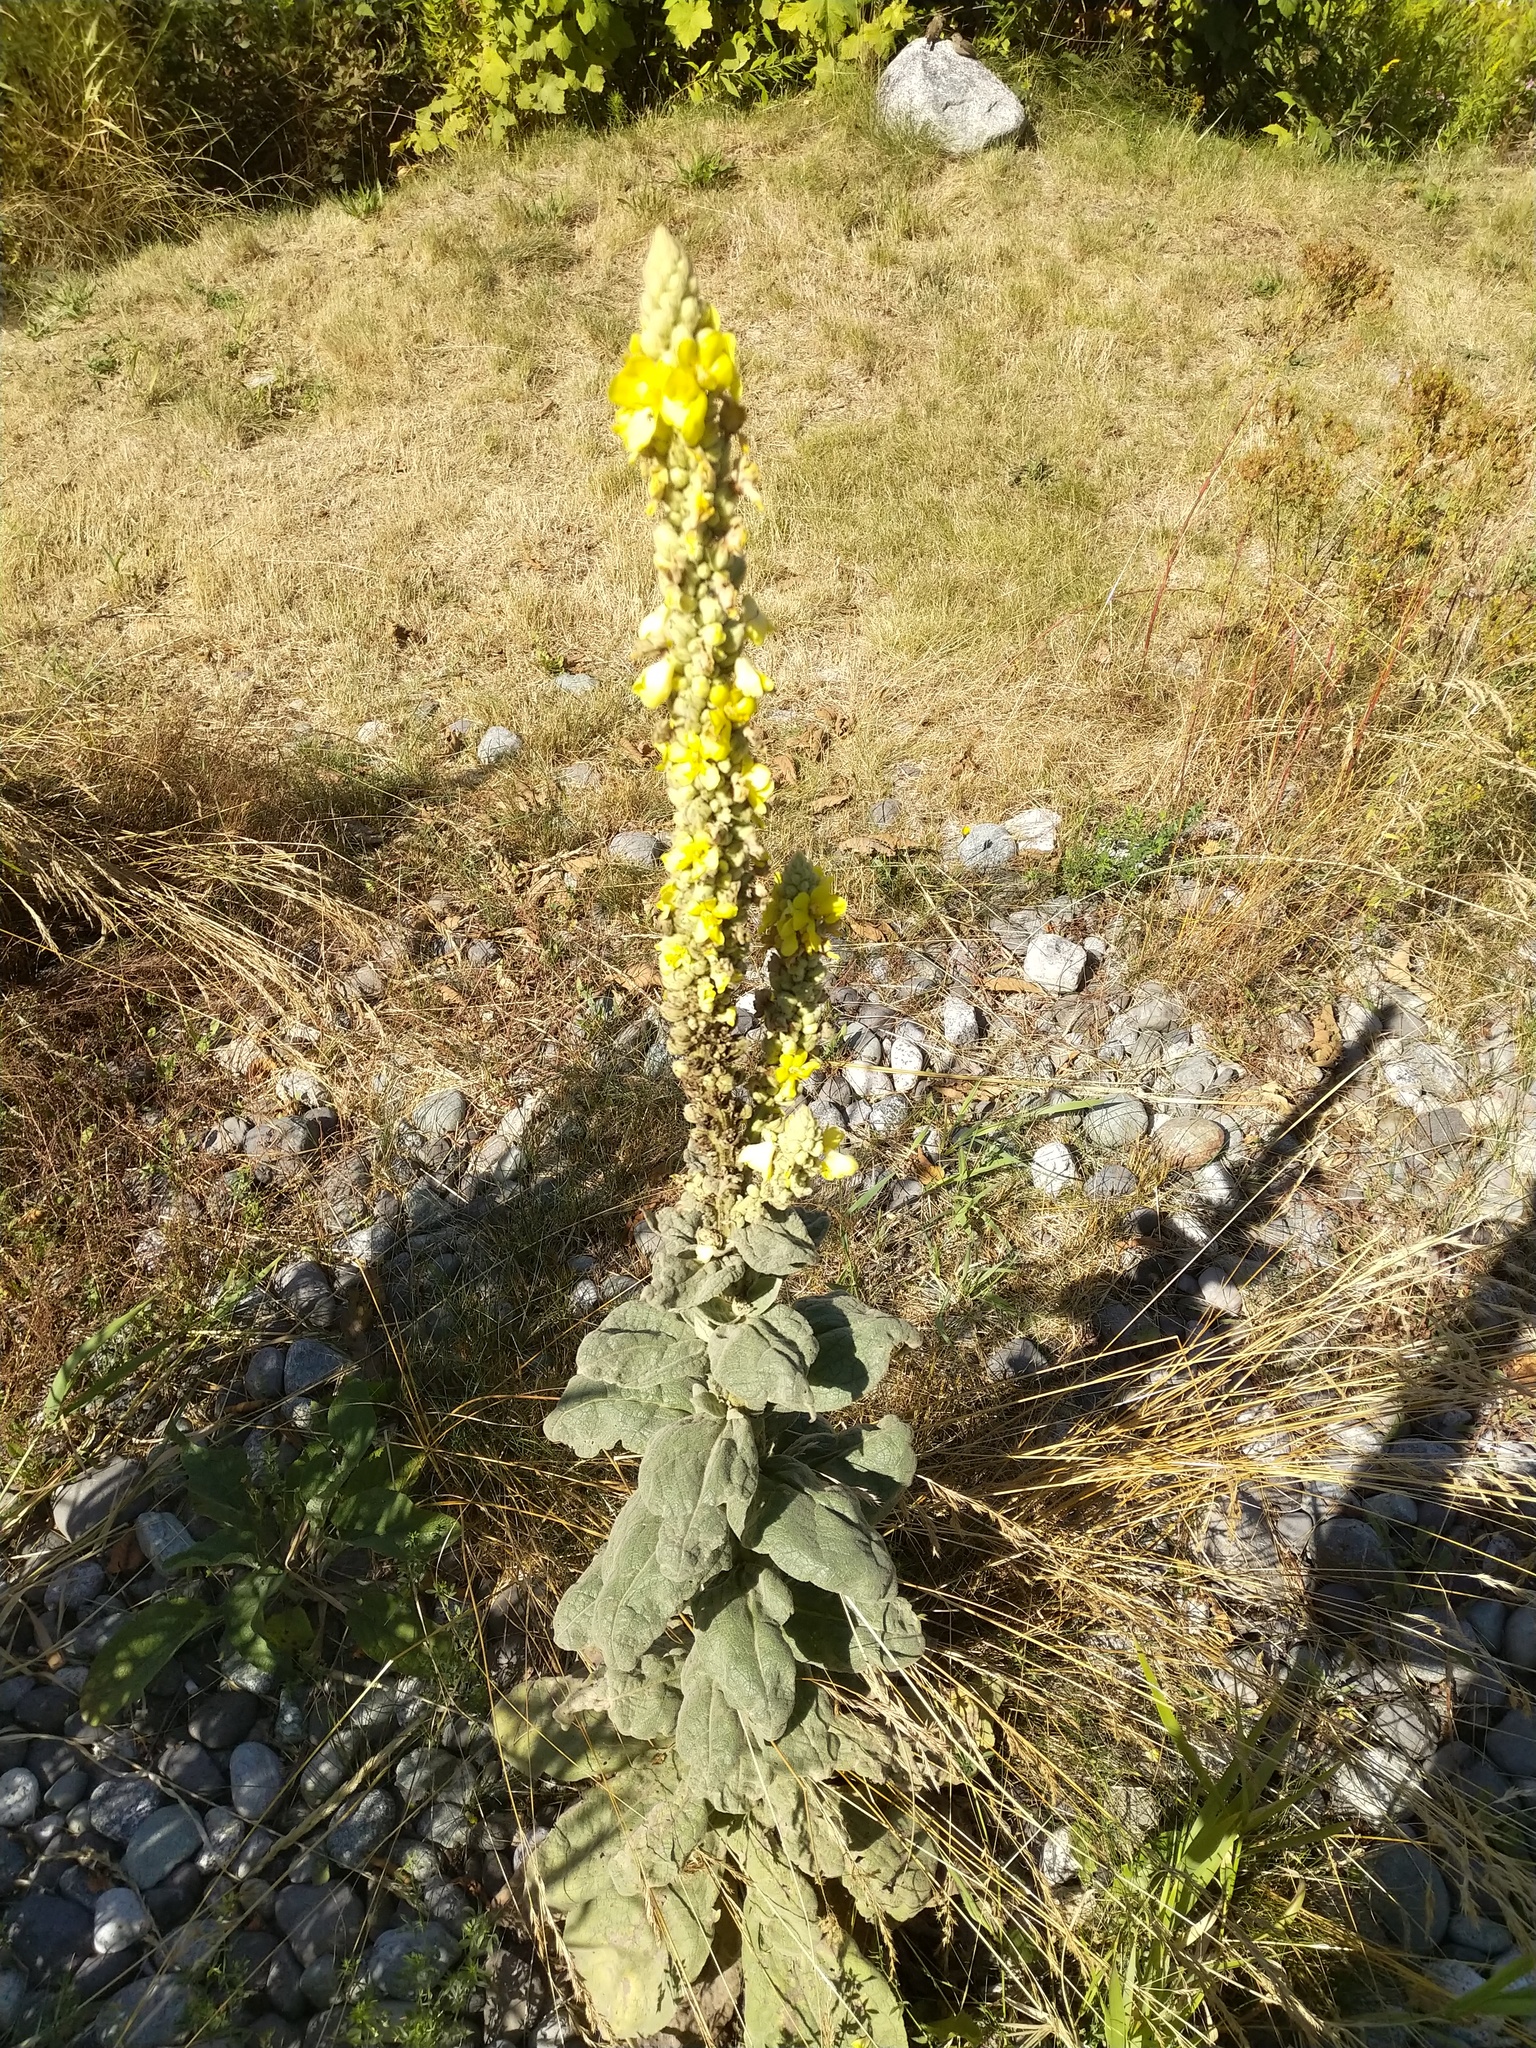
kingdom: Plantae
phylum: Tracheophyta
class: Magnoliopsida
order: Lamiales
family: Scrophulariaceae
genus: Verbascum
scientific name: Verbascum thapsus
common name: Common mullein
